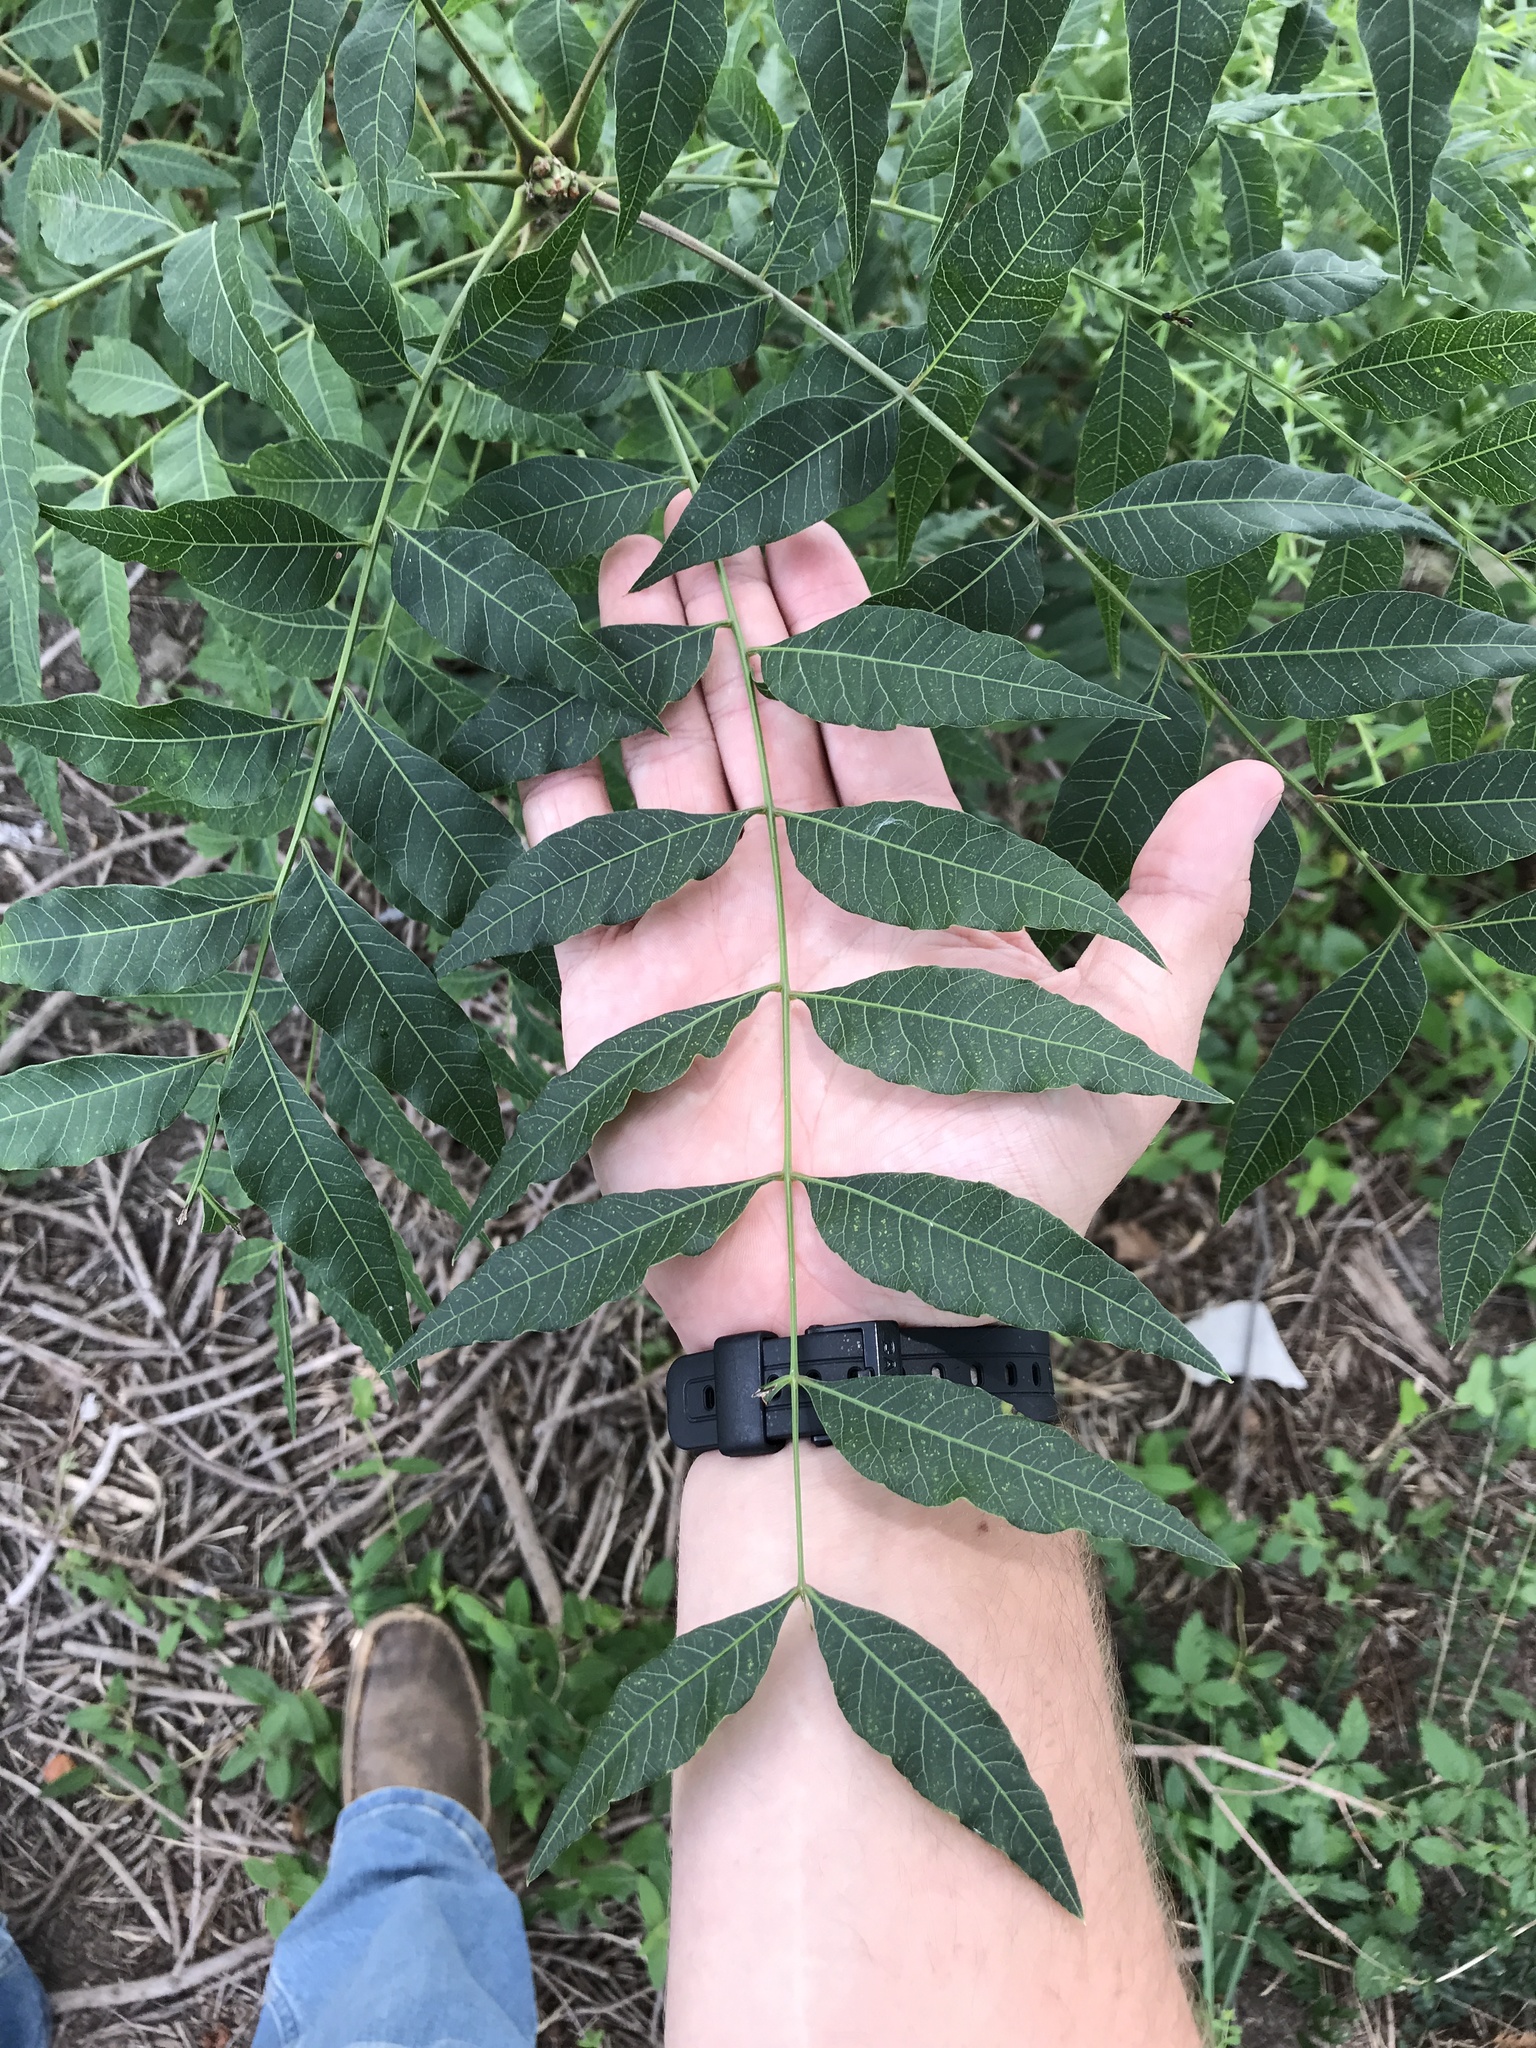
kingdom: Plantae
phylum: Tracheophyta
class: Magnoliopsida
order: Sapindales
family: Anacardiaceae
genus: Pistacia
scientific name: Pistacia chinensis
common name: Chinese pistache
